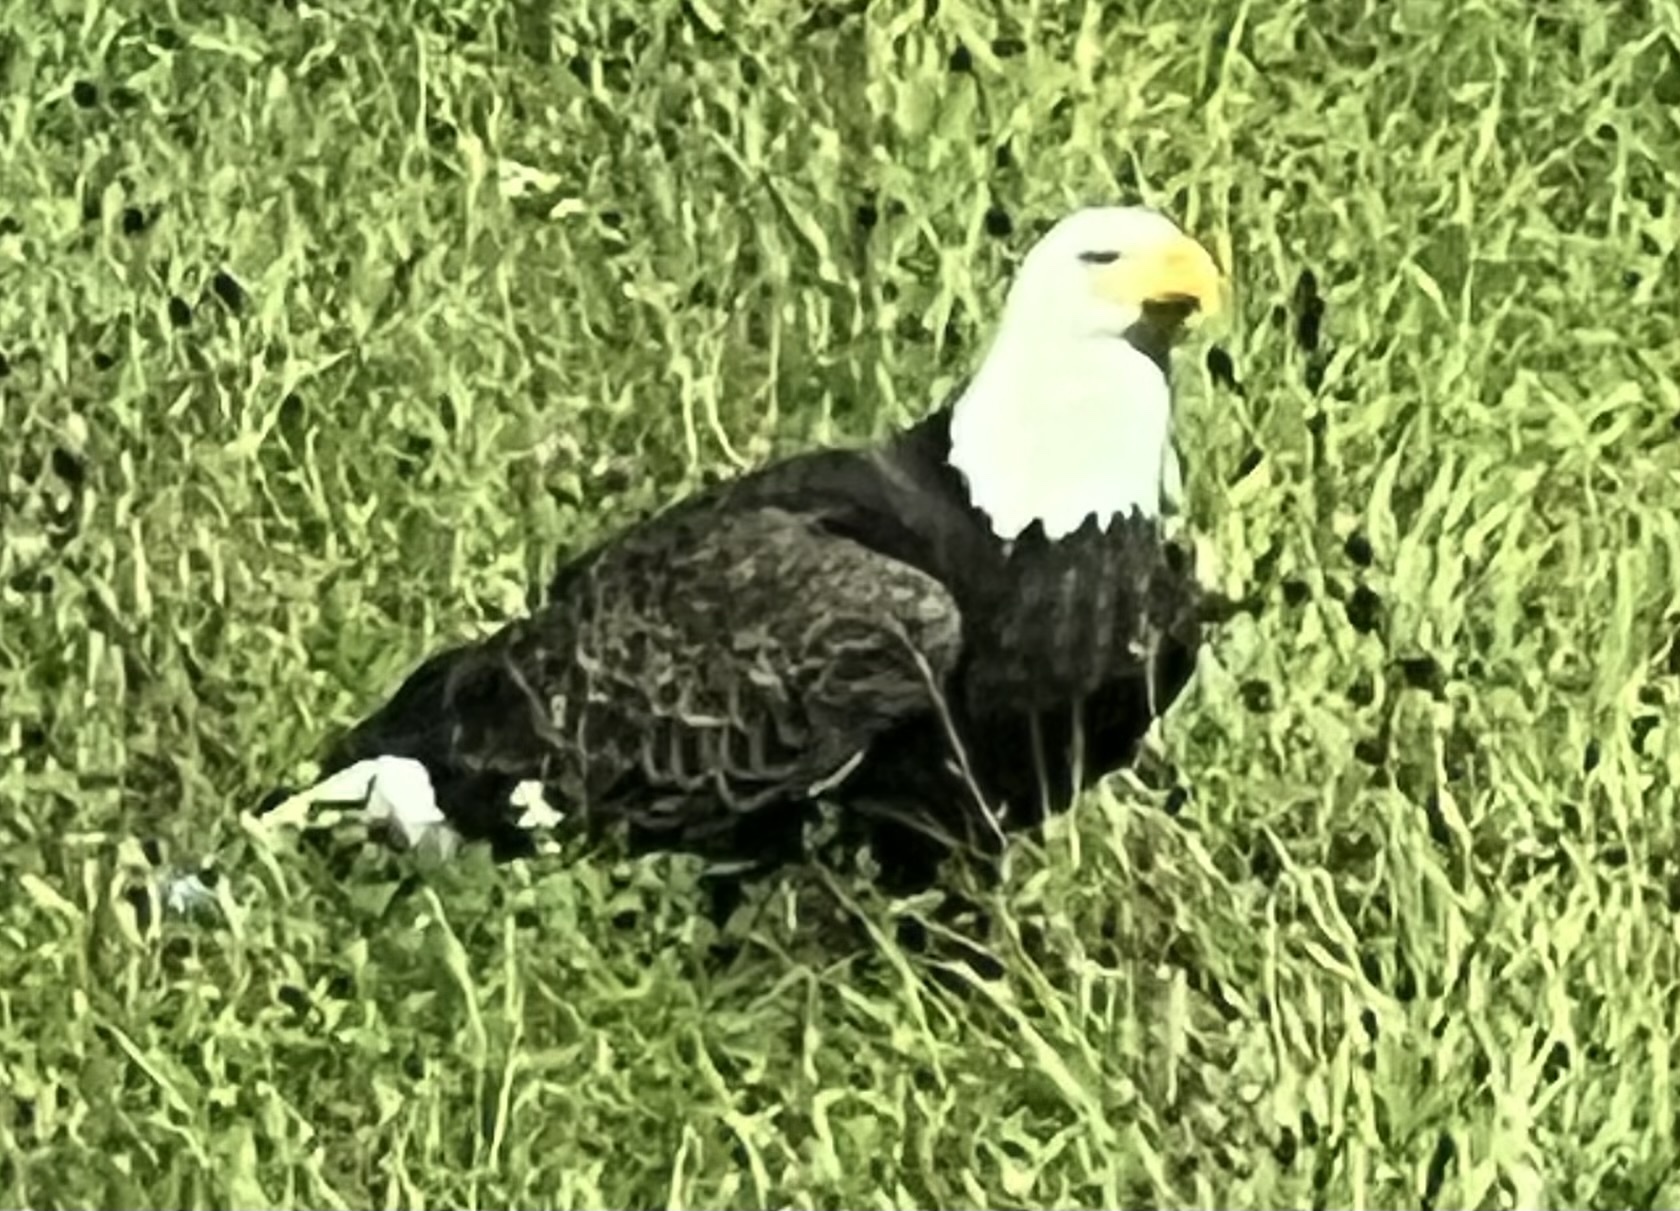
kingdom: Animalia
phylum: Chordata
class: Aves
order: Accipitriformes
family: Accipitridae
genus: Haliaeetus
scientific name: Haliaeetus leucocephalus
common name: Bald eagle
